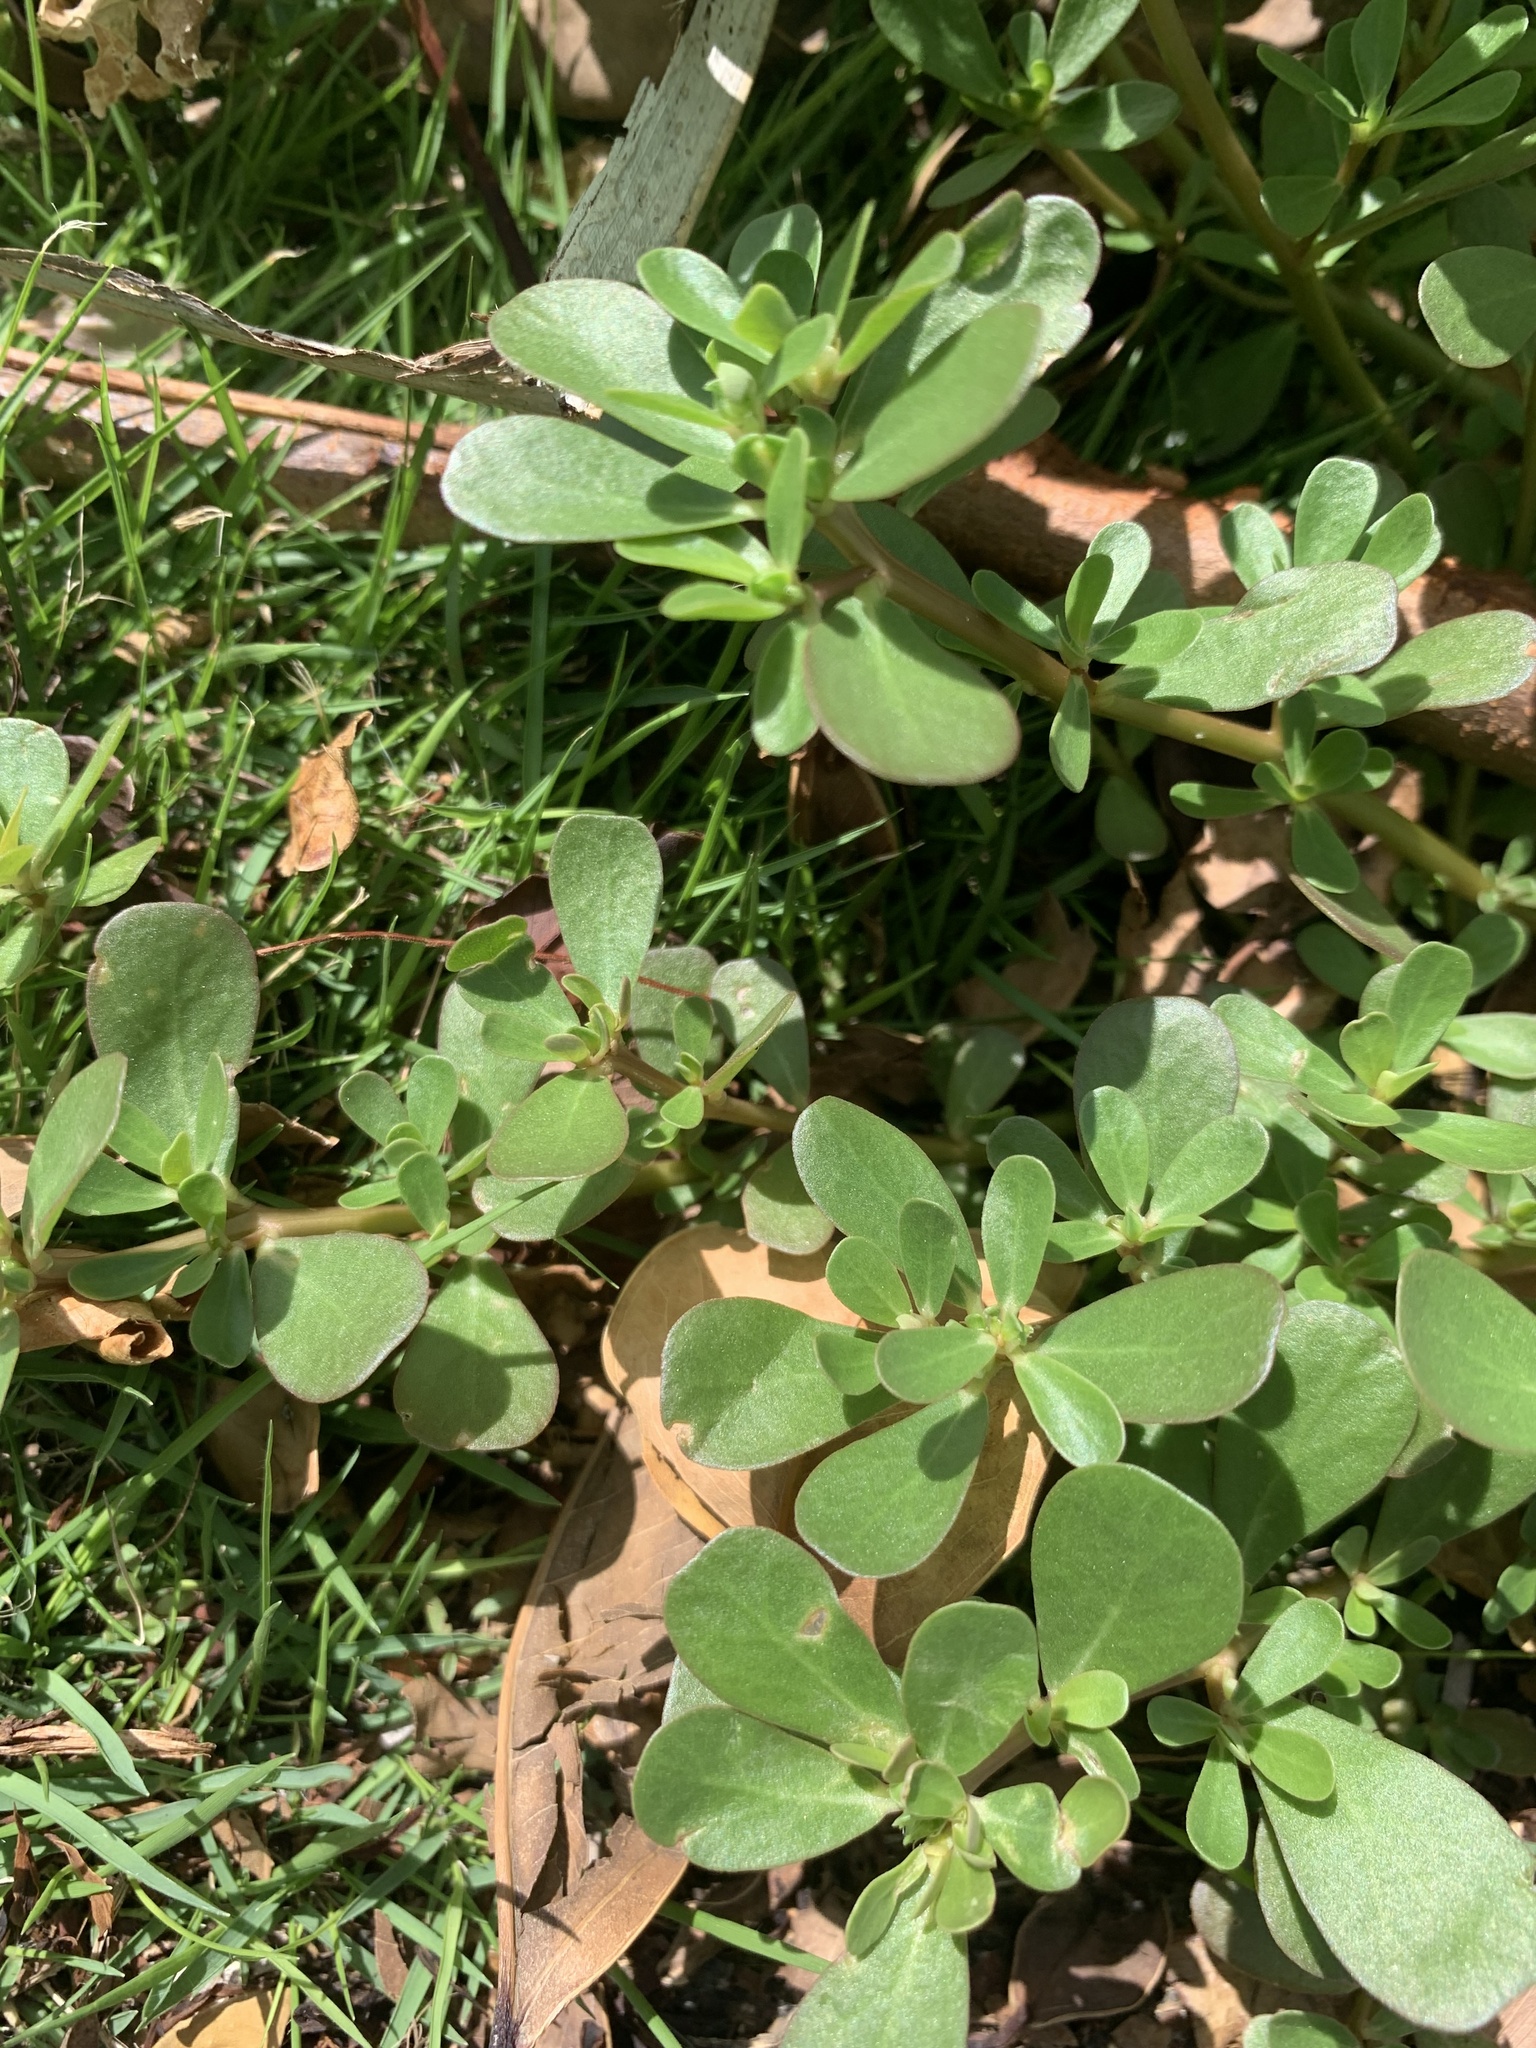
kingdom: Plantae
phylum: Tracheophyta
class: Magnoliopsida
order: Caryophyllales
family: Portulacaceae
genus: Portulaca
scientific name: Portulaca oleracea
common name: Common purslane
